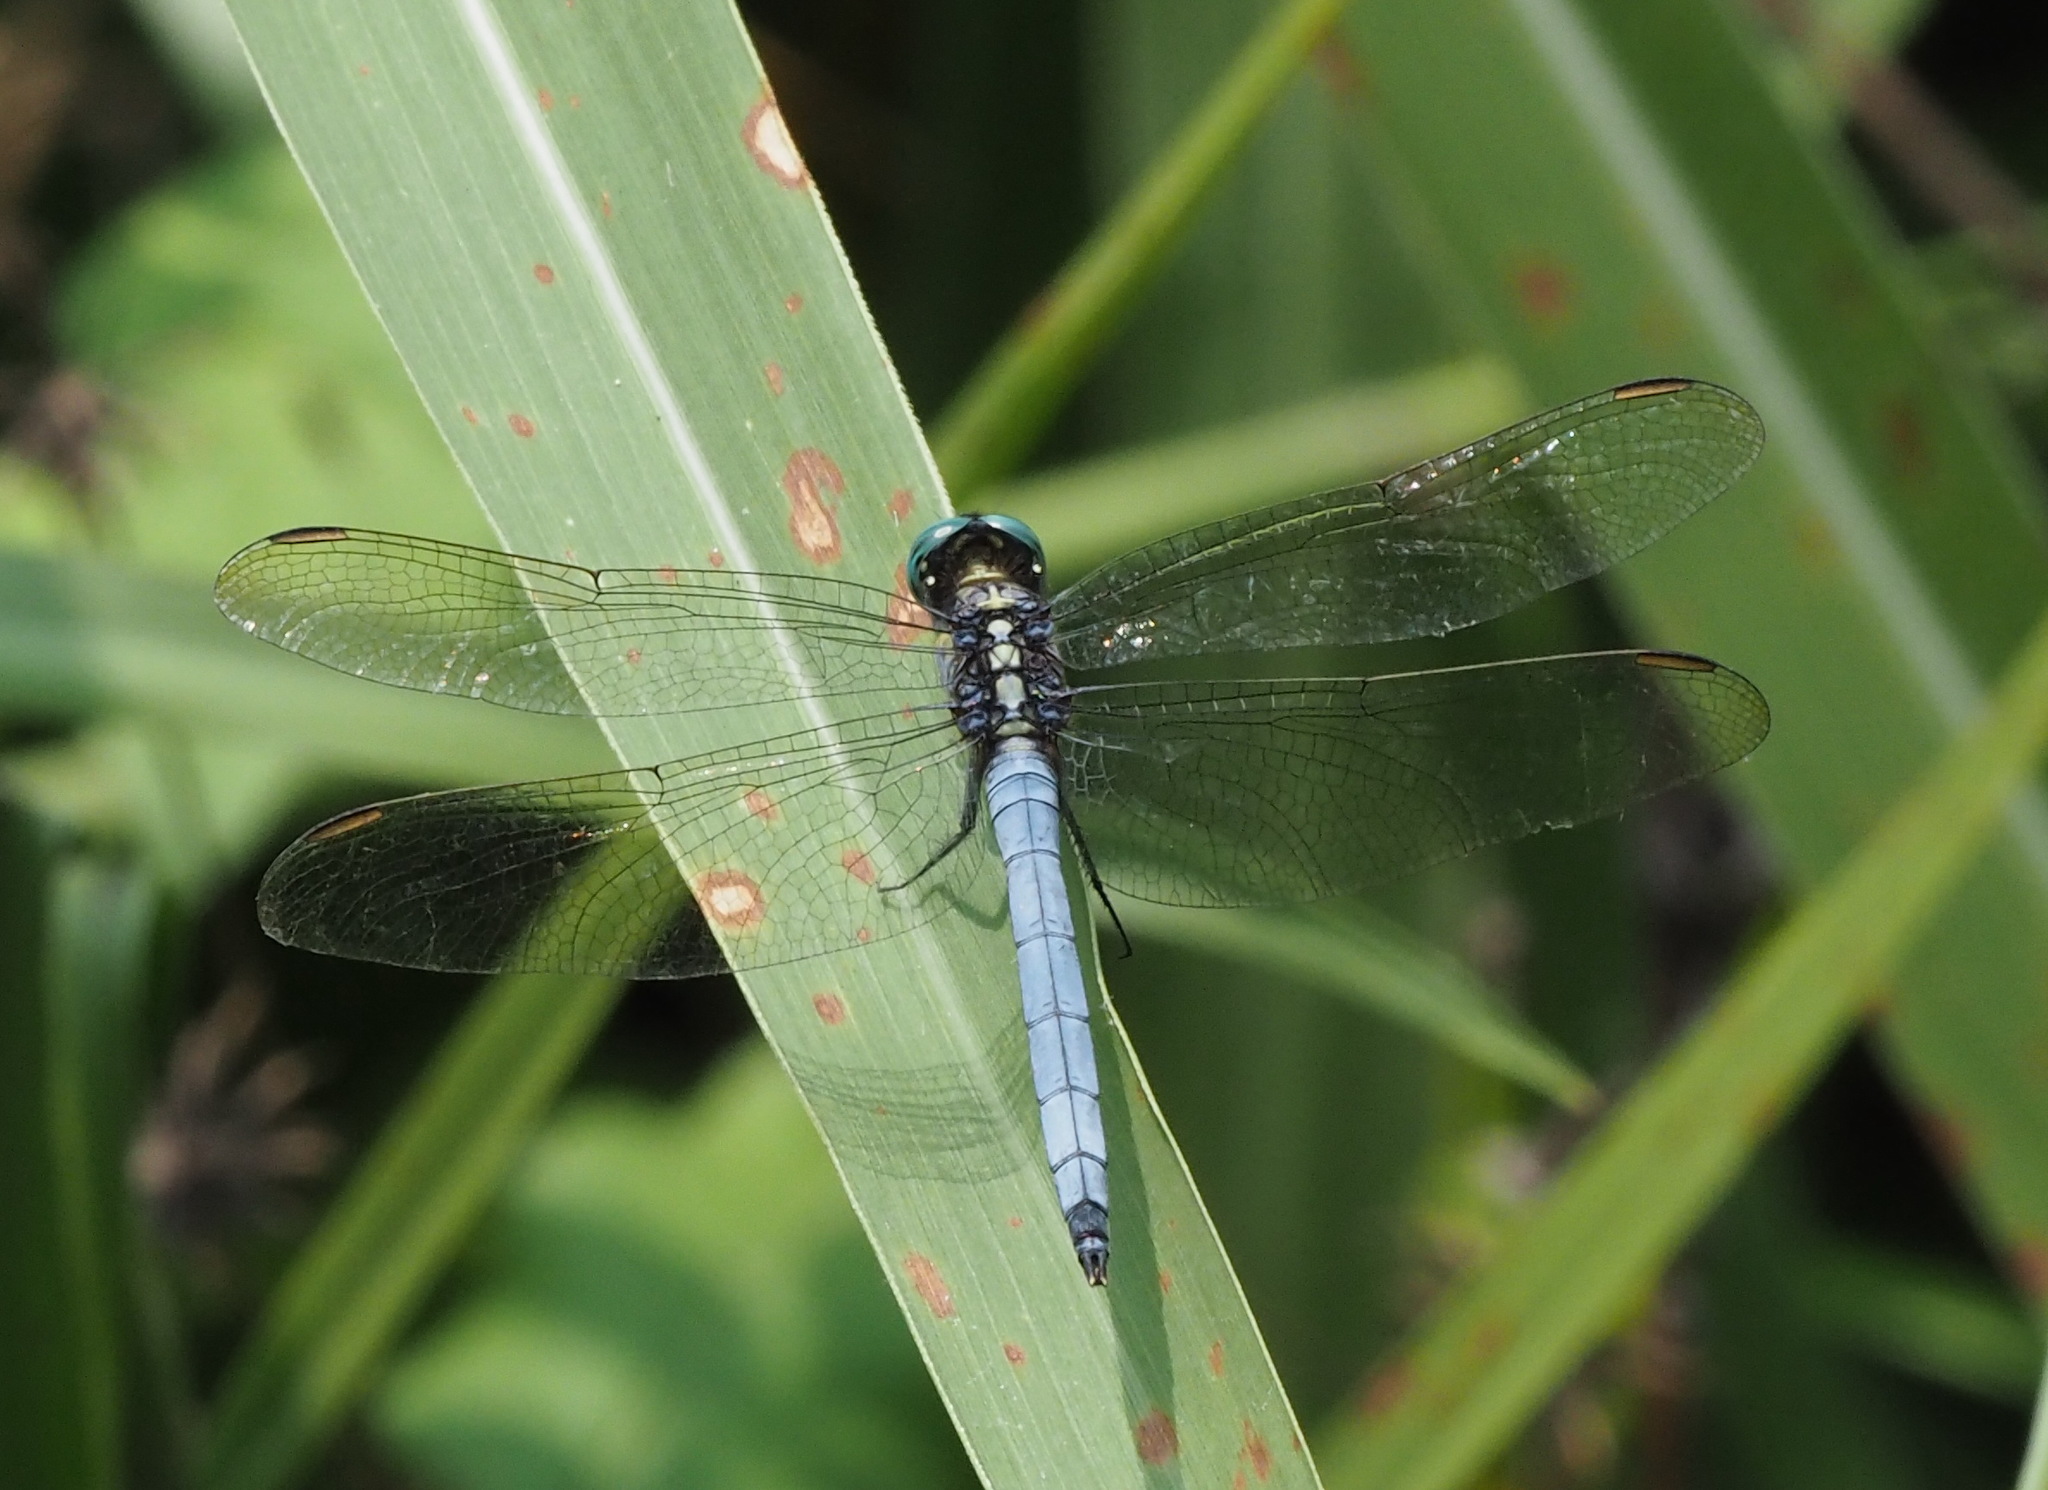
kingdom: Animalia
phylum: Arthropoda
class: Insecta
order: Odonata
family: Libellulidae
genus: Orthetrum
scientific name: Orthetrum luzonicum
